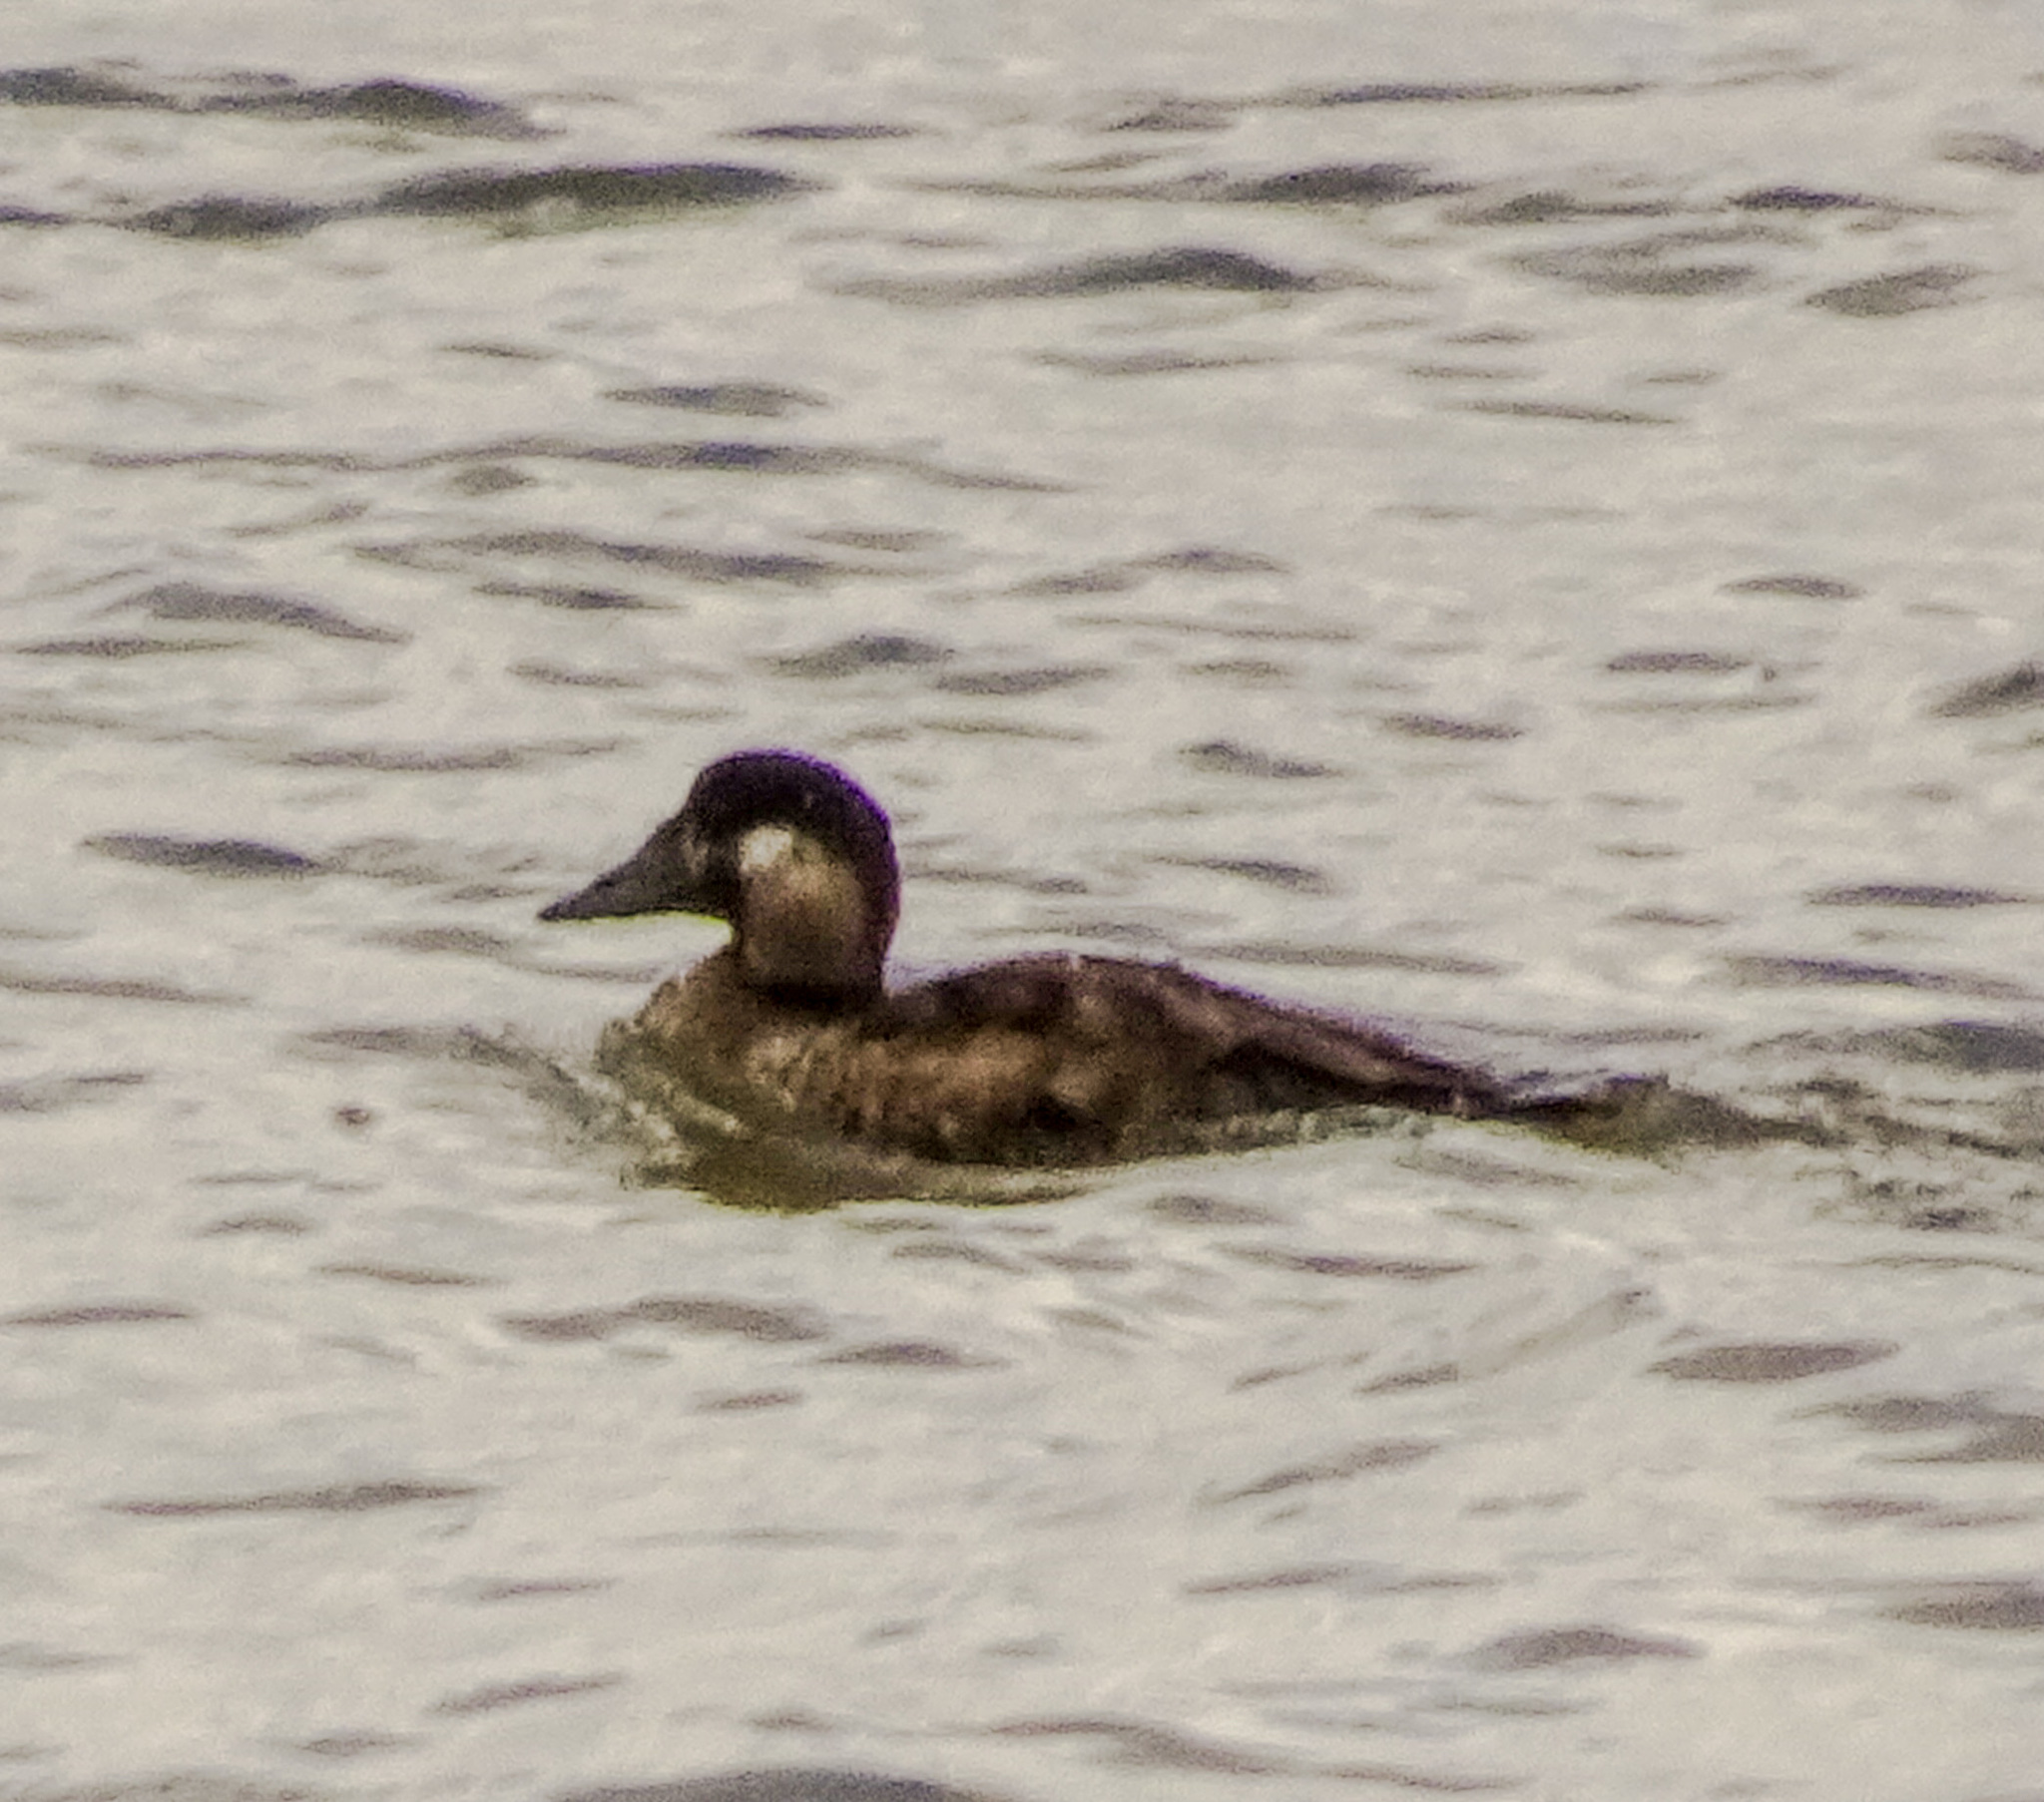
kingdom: Animalia
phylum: Chordata
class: Aves
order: Anseriformes
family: Anatidae
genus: Melanitta
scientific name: Melanitta perspicillata
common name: Surf scoter
